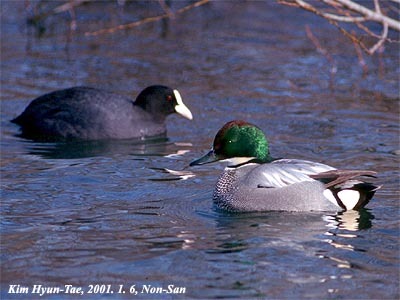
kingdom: Animalia
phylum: Chordata
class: Aves
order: Anseriformes
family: Anatidae
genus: Mareca
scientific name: Mareca falcata
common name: Falcated duck
